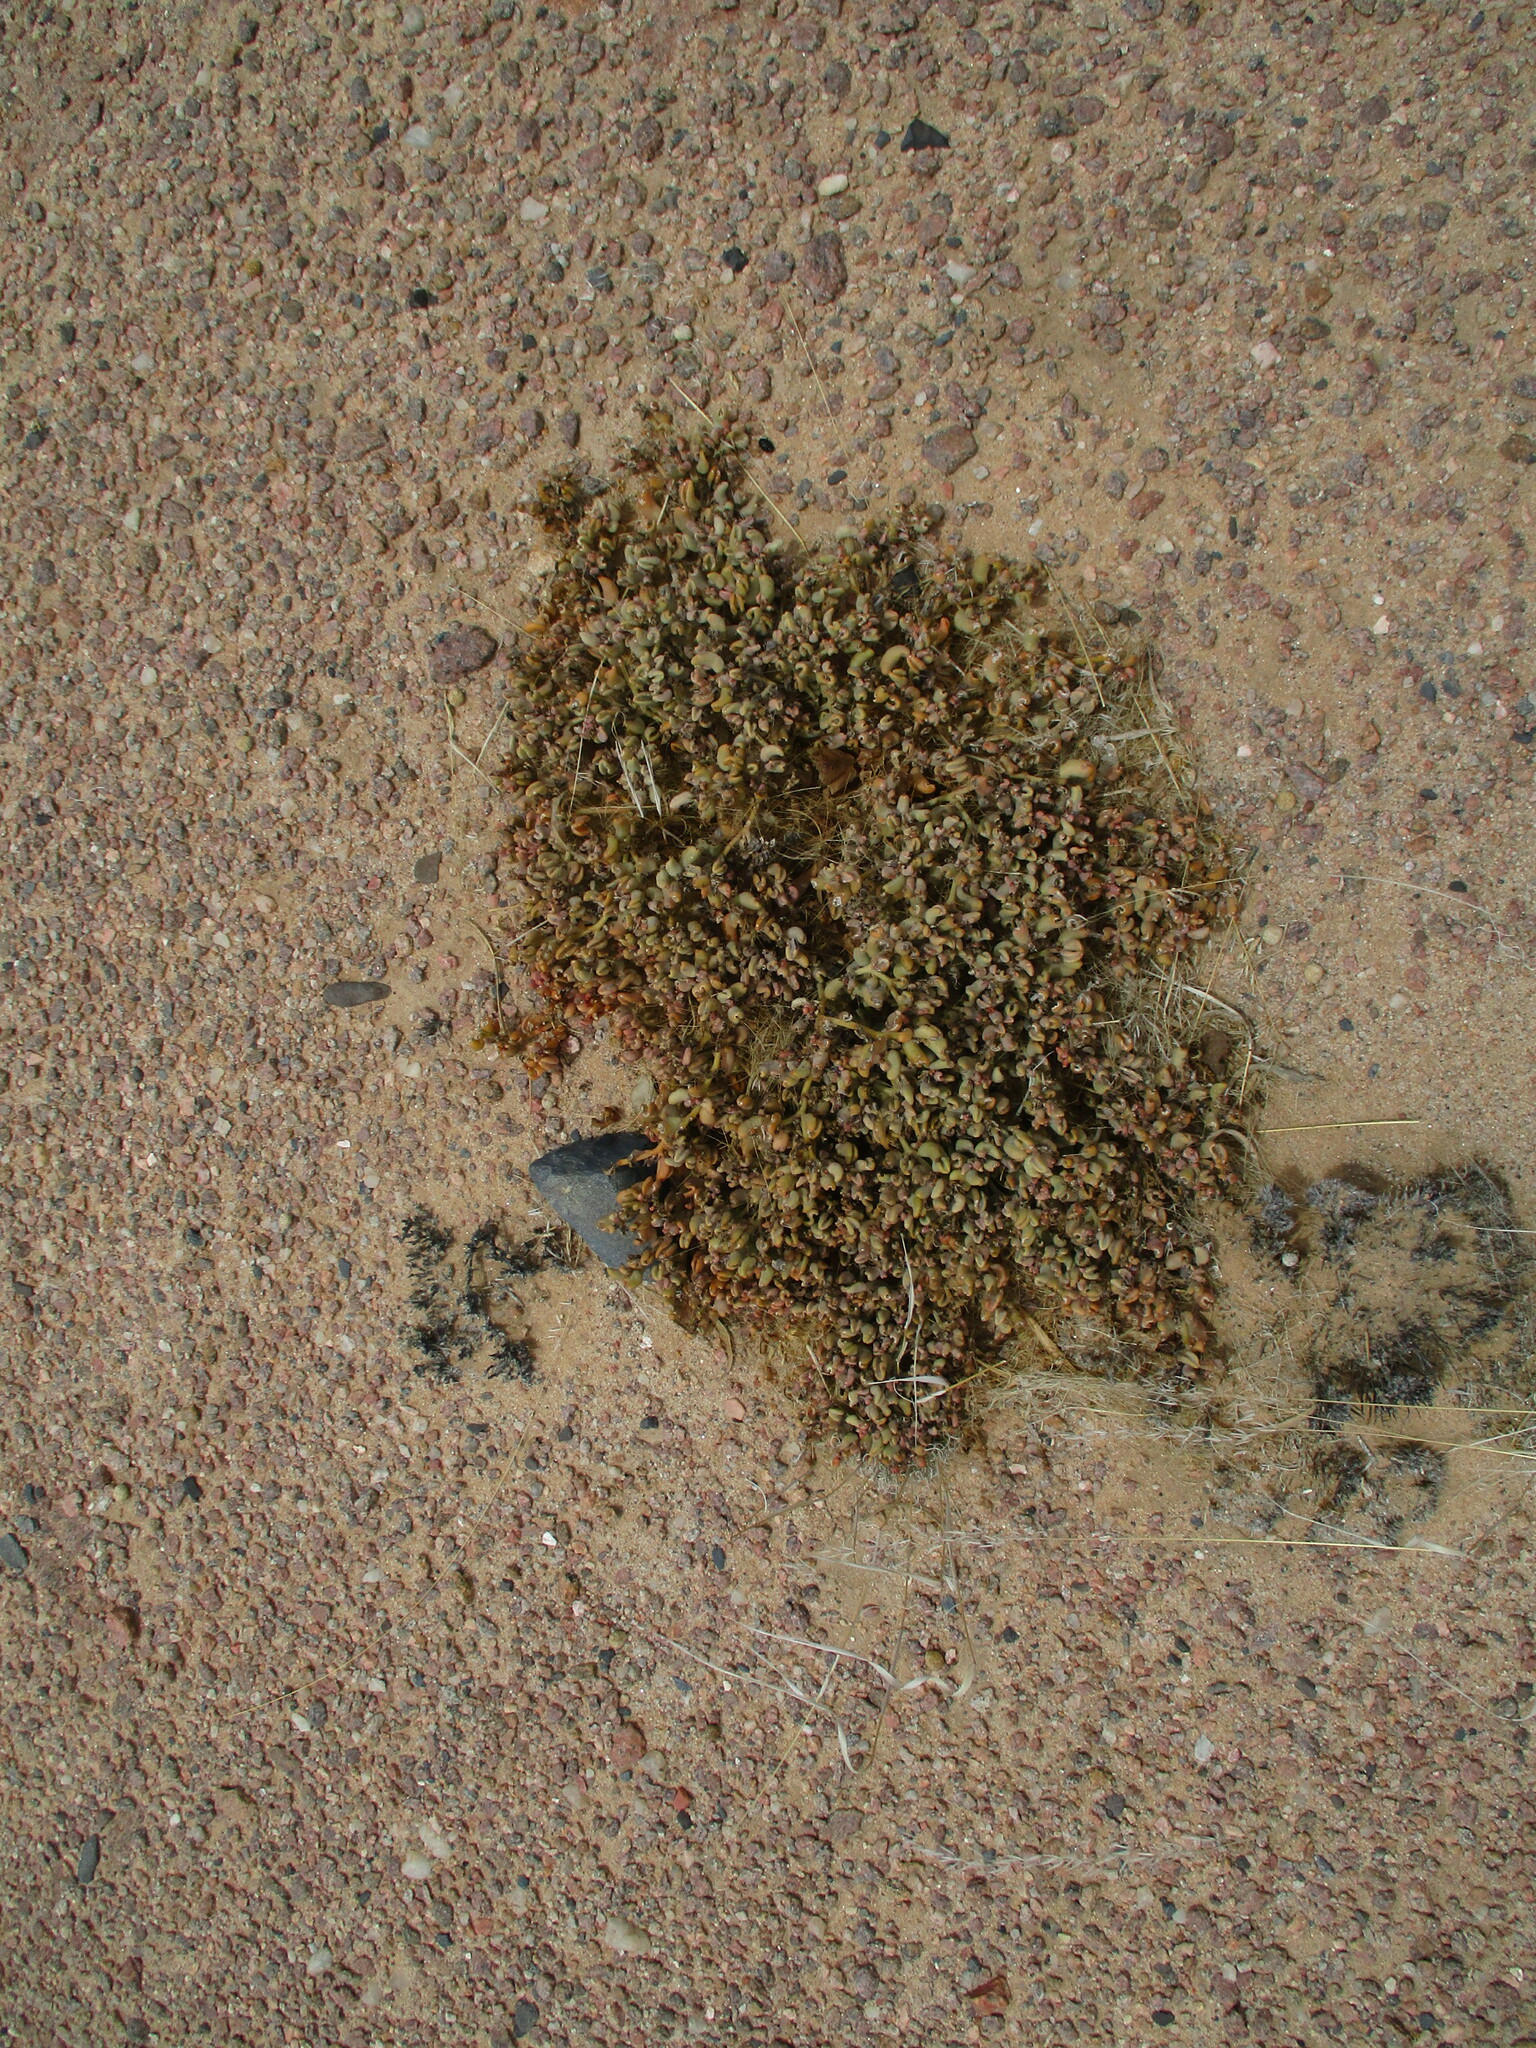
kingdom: Plantae
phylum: Tracheophyta
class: Magnoliopsida
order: Caryophyllales
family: Aizoaceae
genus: Sesuvium
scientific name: Sesuvium sesuvioides
